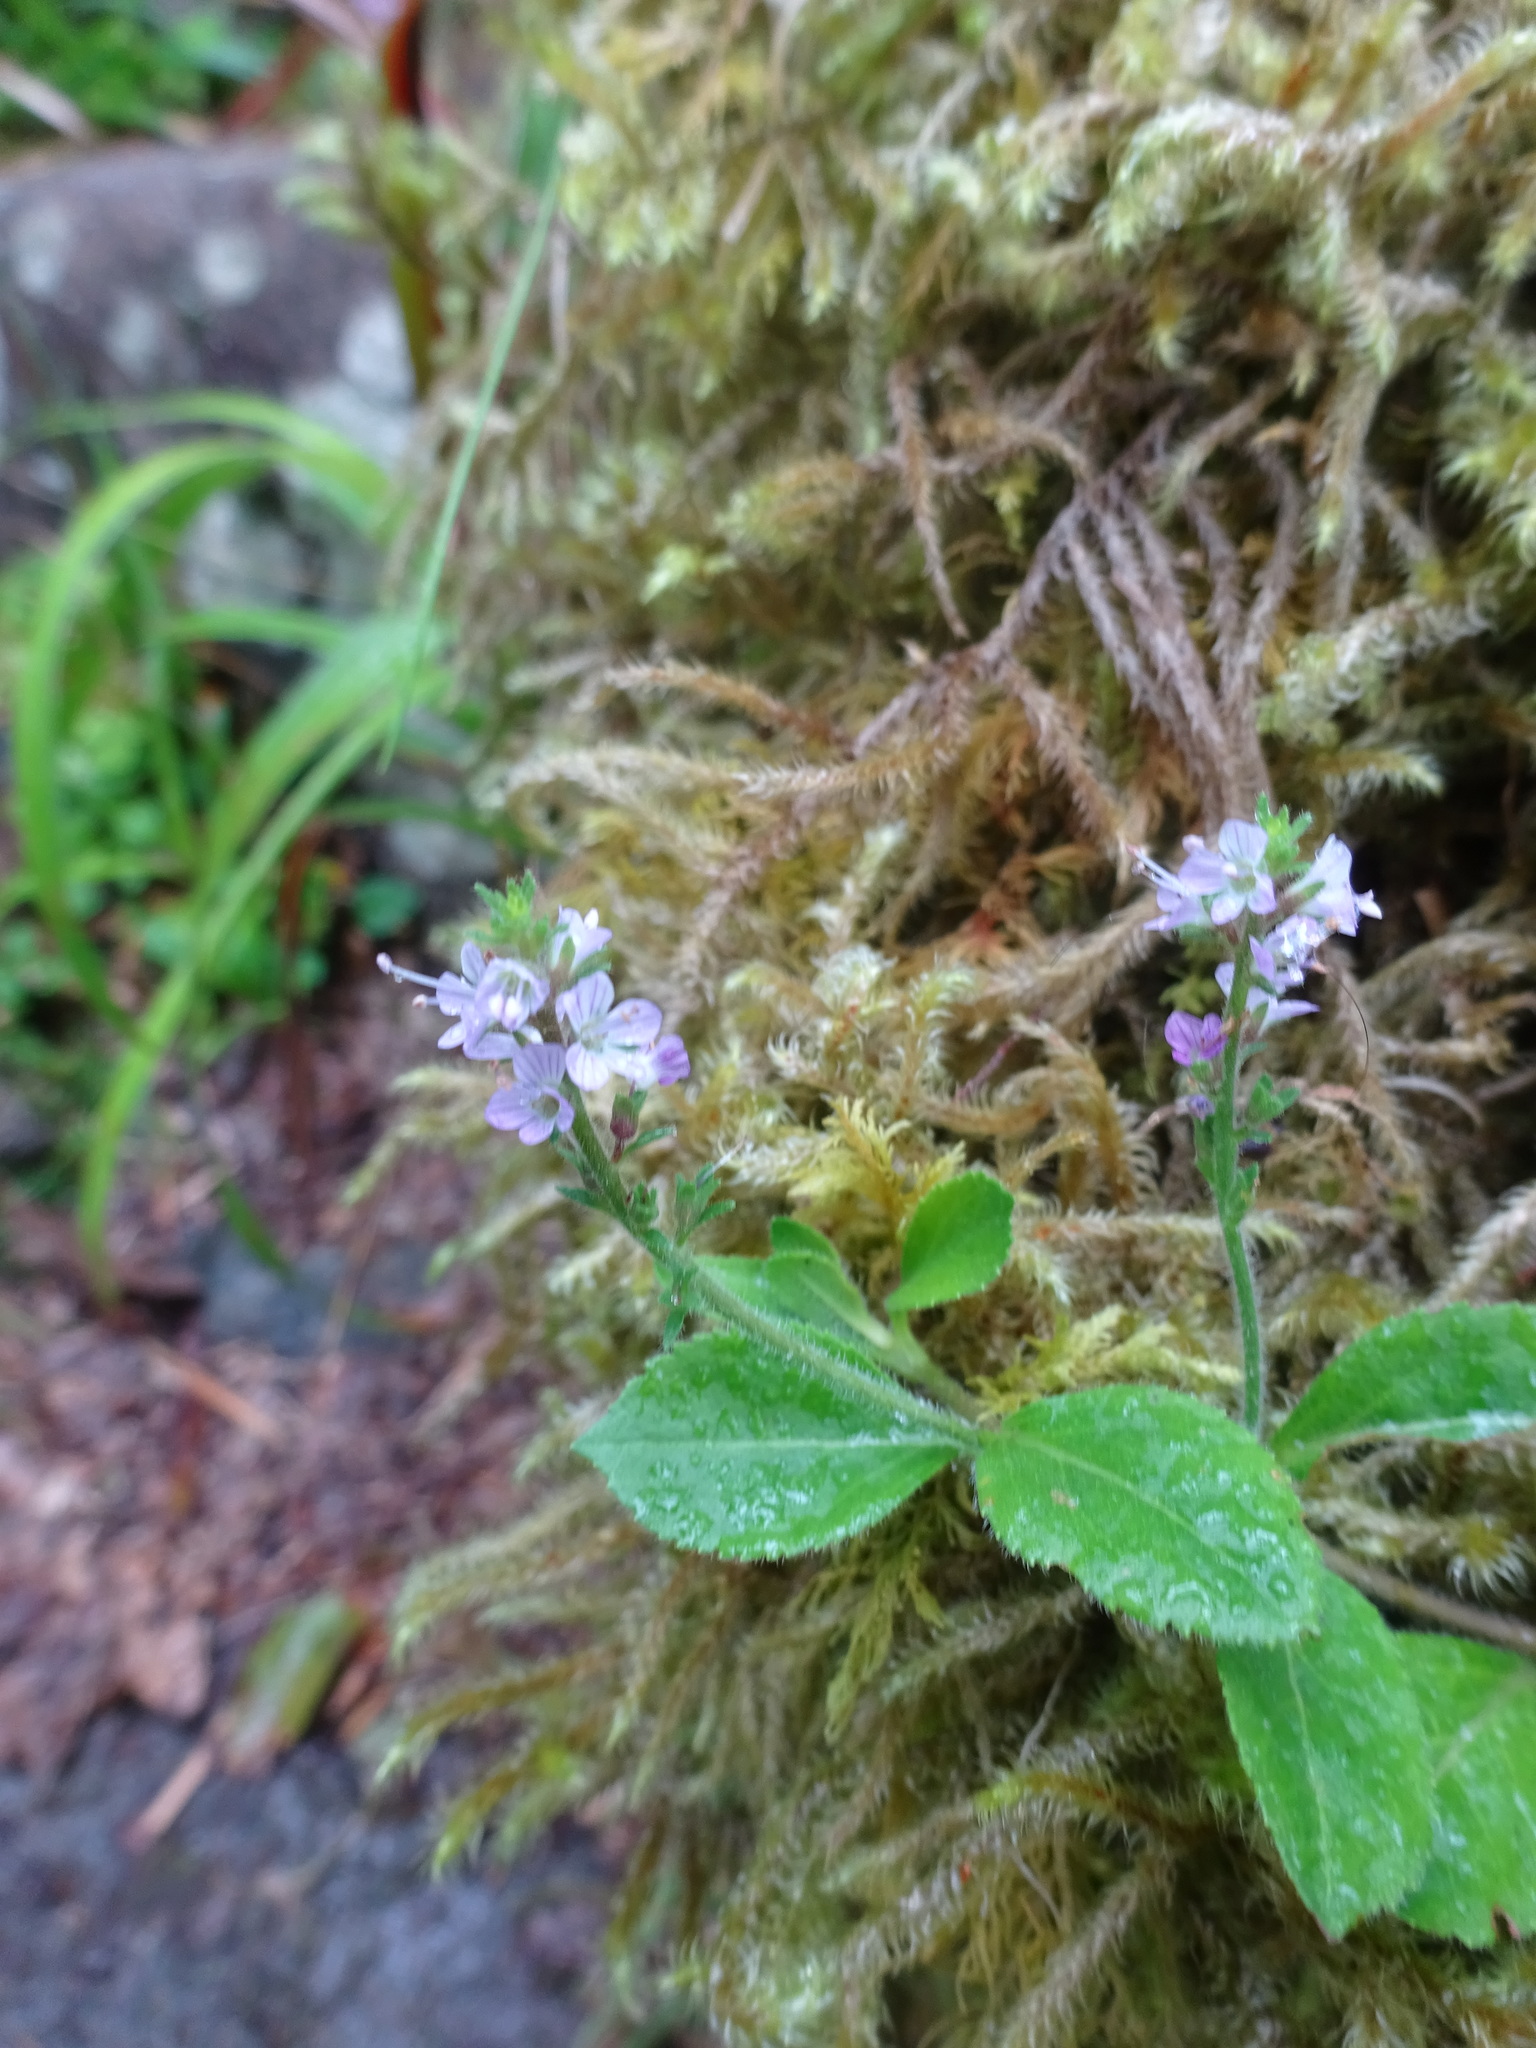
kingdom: Plantae
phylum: Tracheophyta
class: Magnoliopsida
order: Lamiales
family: Plantaginaceae
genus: Veronica
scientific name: Veronica officinalis
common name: Common speedwell
